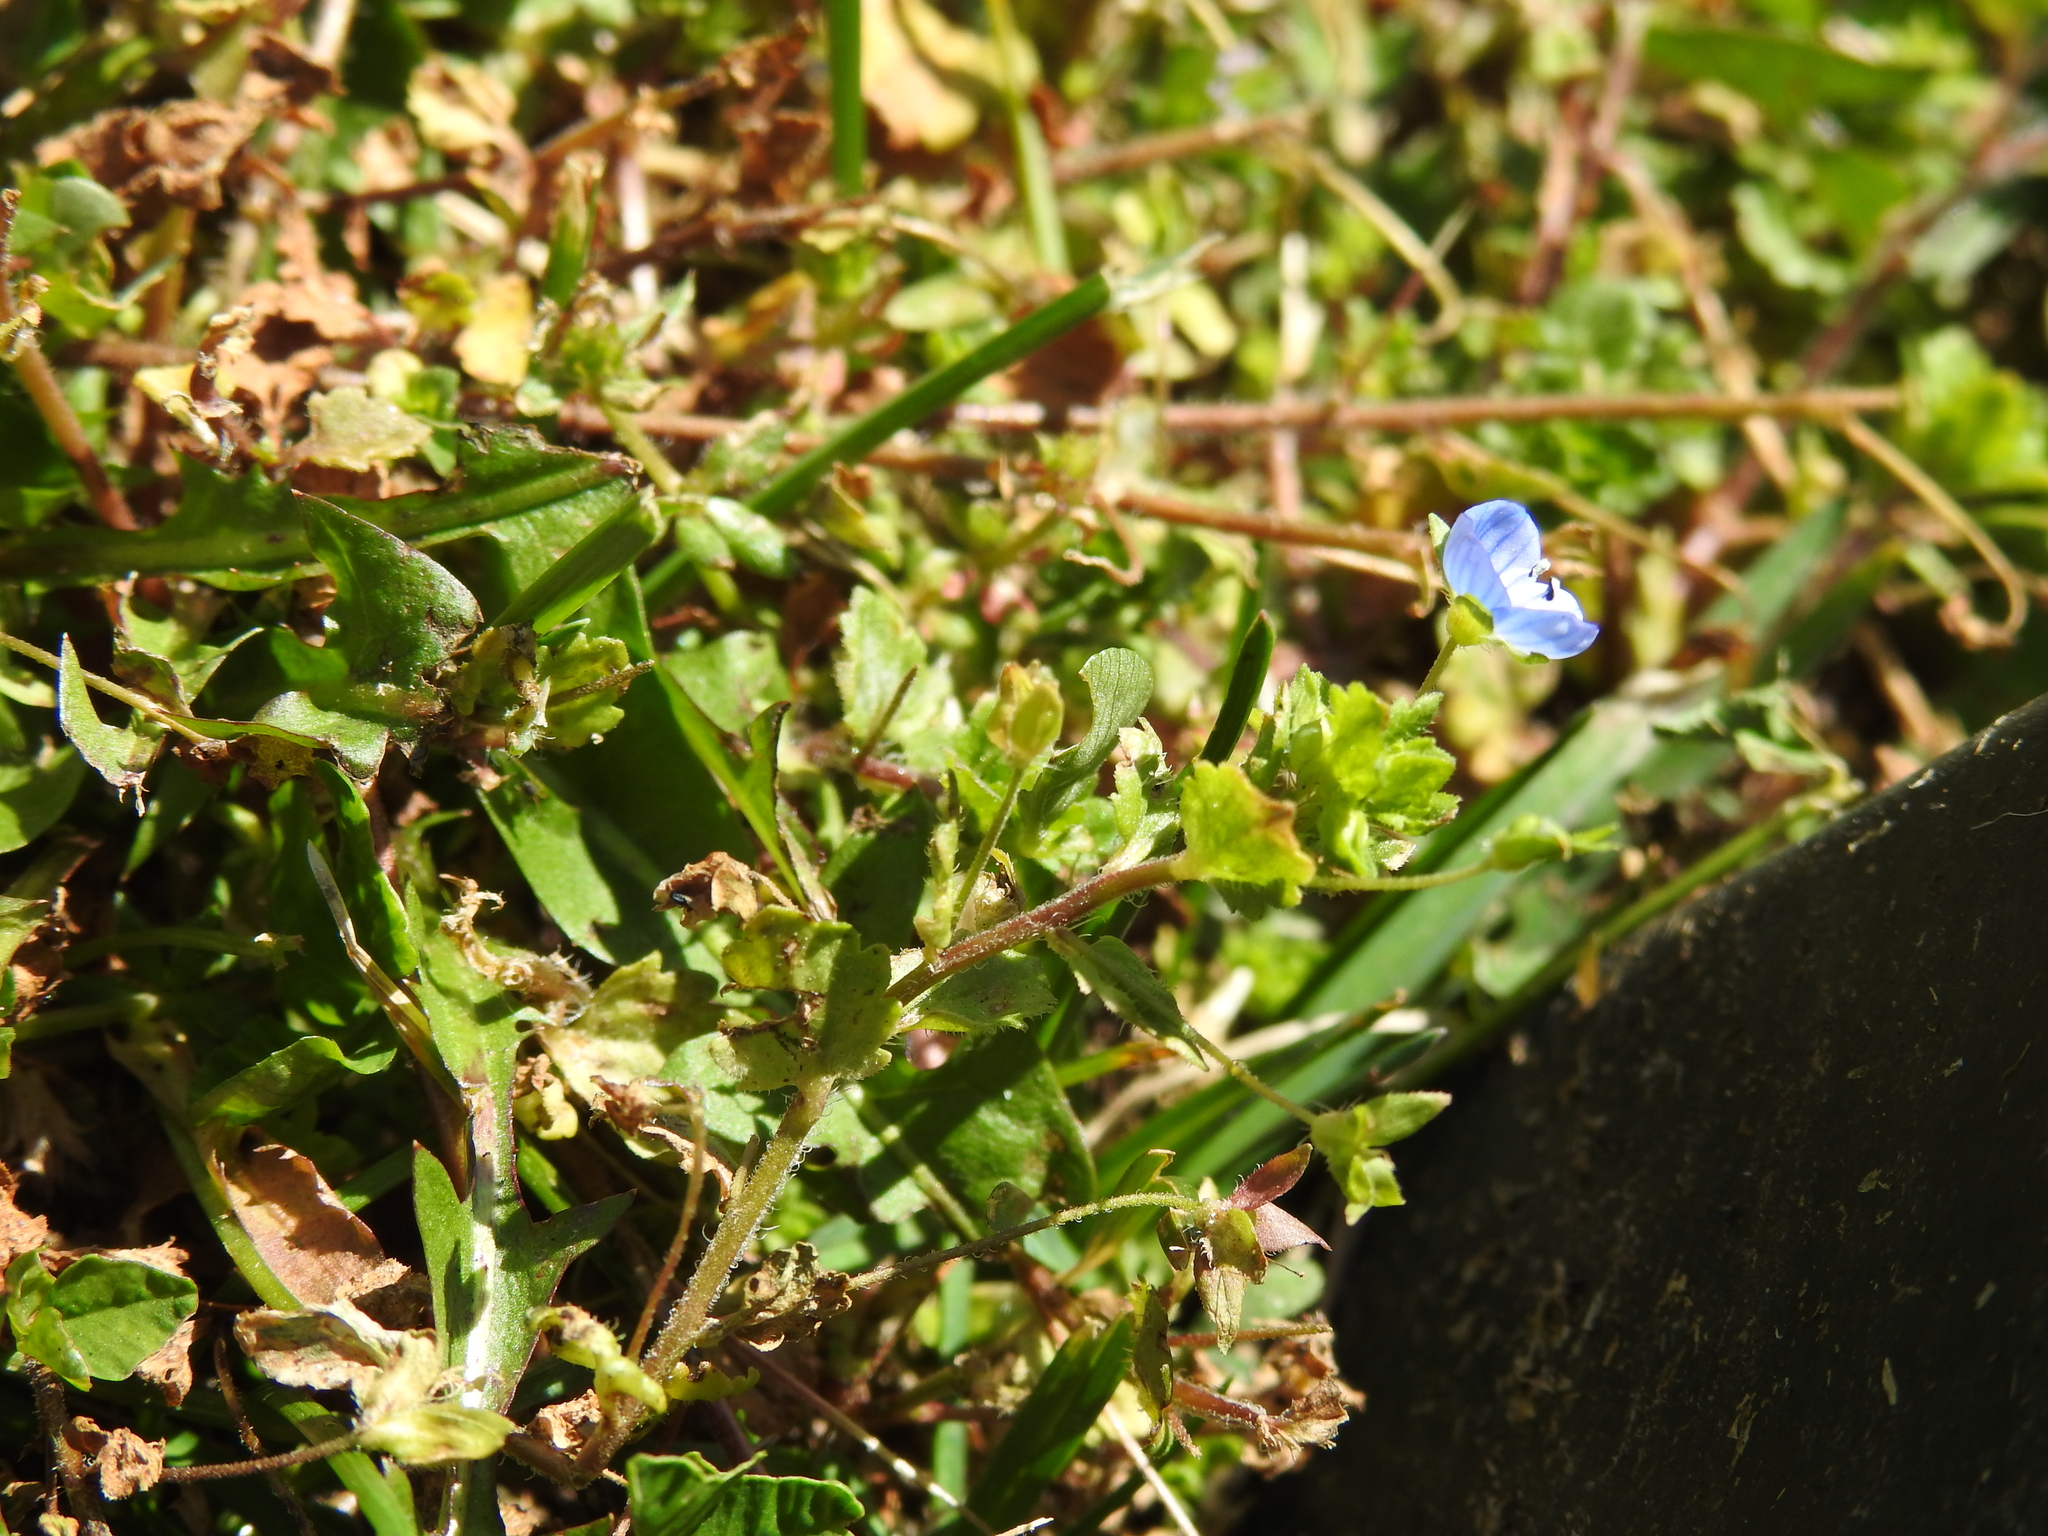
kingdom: Plantae
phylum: Tracheophyta
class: Magnoliopsida
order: Lamiales
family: Plantaginaceae
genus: Veronica
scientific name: Veronica persica
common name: Common field-speedwell
